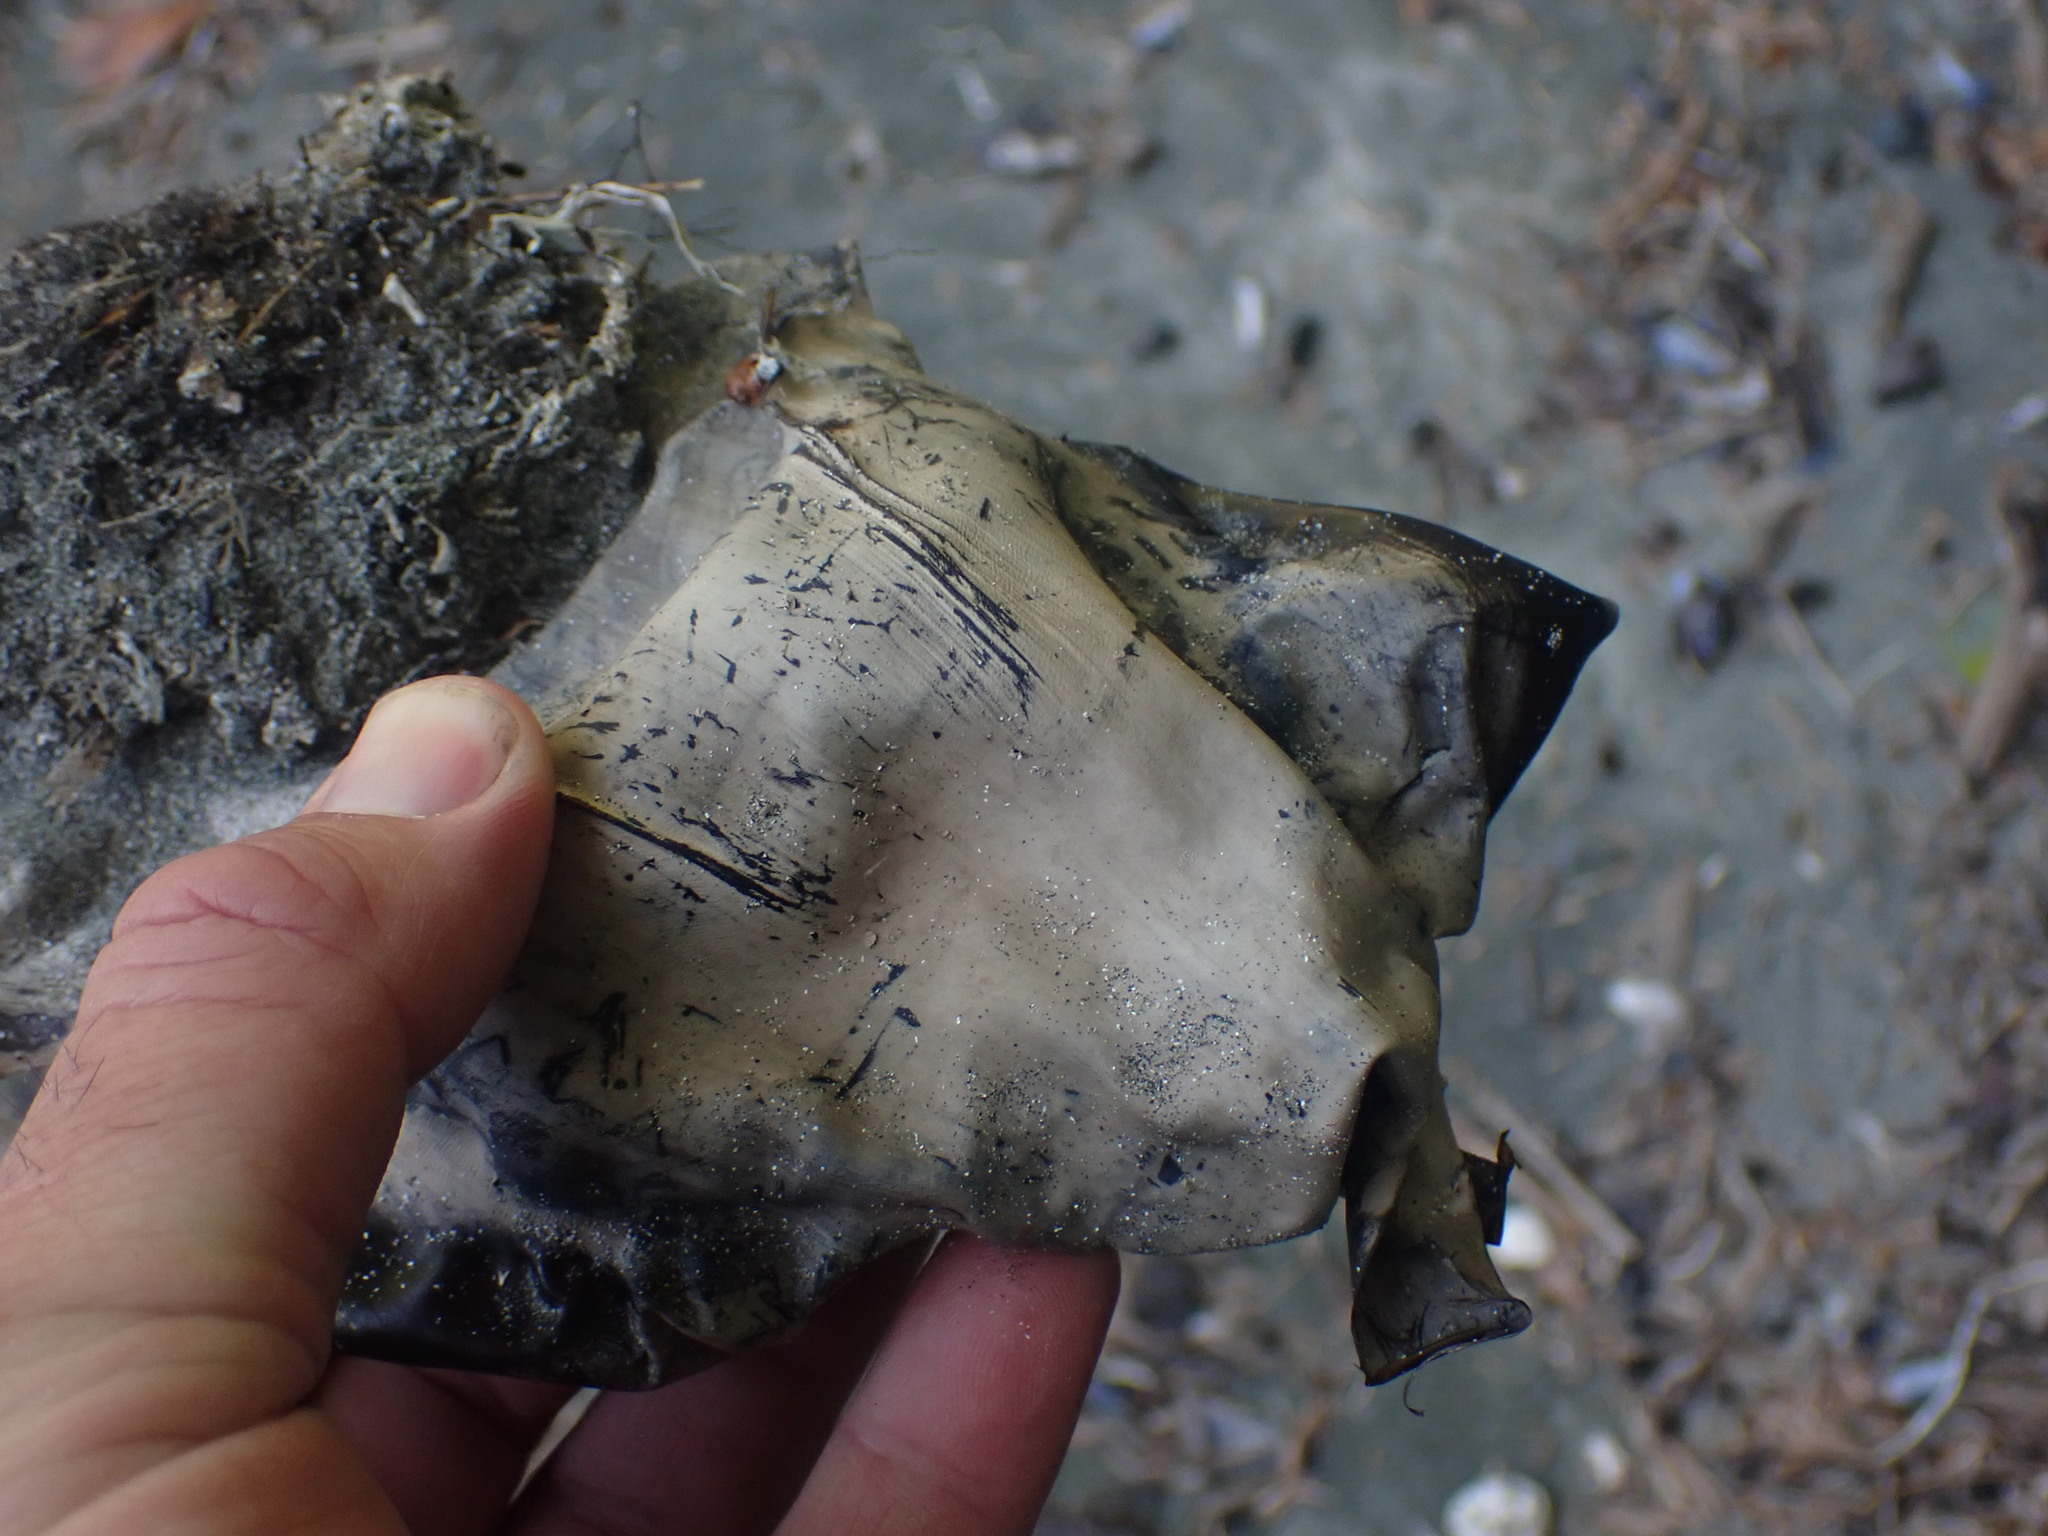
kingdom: Animalia
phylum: Chordata
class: Elasmobranchii
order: Rajiformes
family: Rajidae
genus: Beringraja
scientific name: Beringraja binoculata
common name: Big skate
